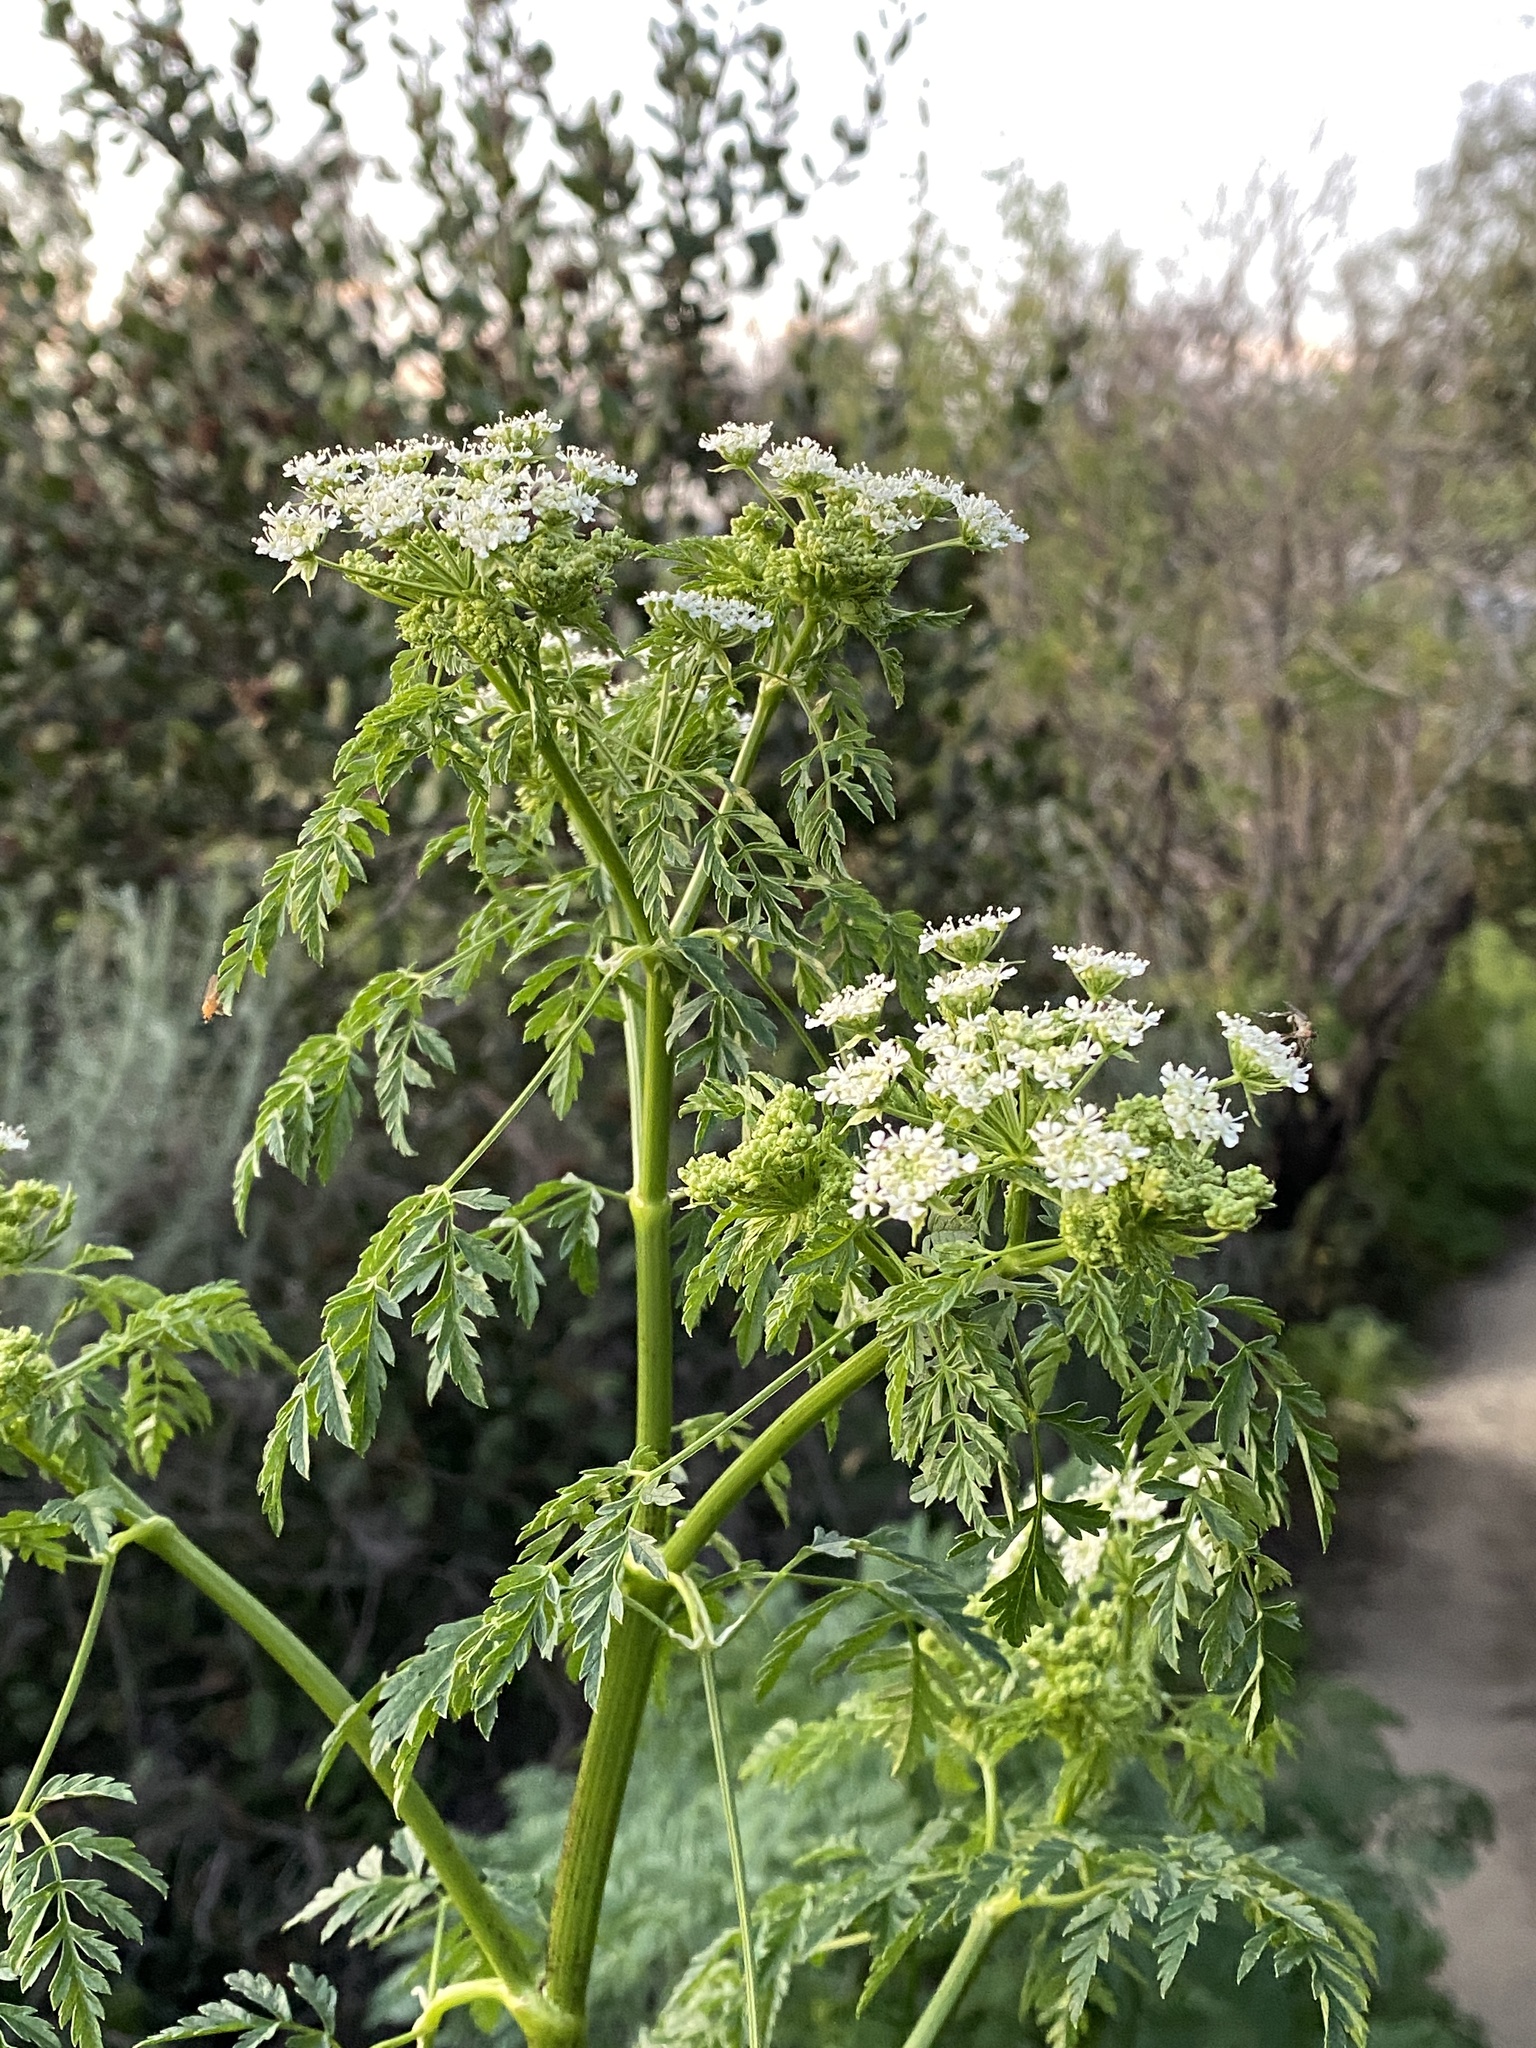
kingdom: Plantae
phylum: Tracheophyta
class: Magnoliopsida
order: Apiales
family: Apiaceae
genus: Conium
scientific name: Conium maculatum
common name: Hemlock
